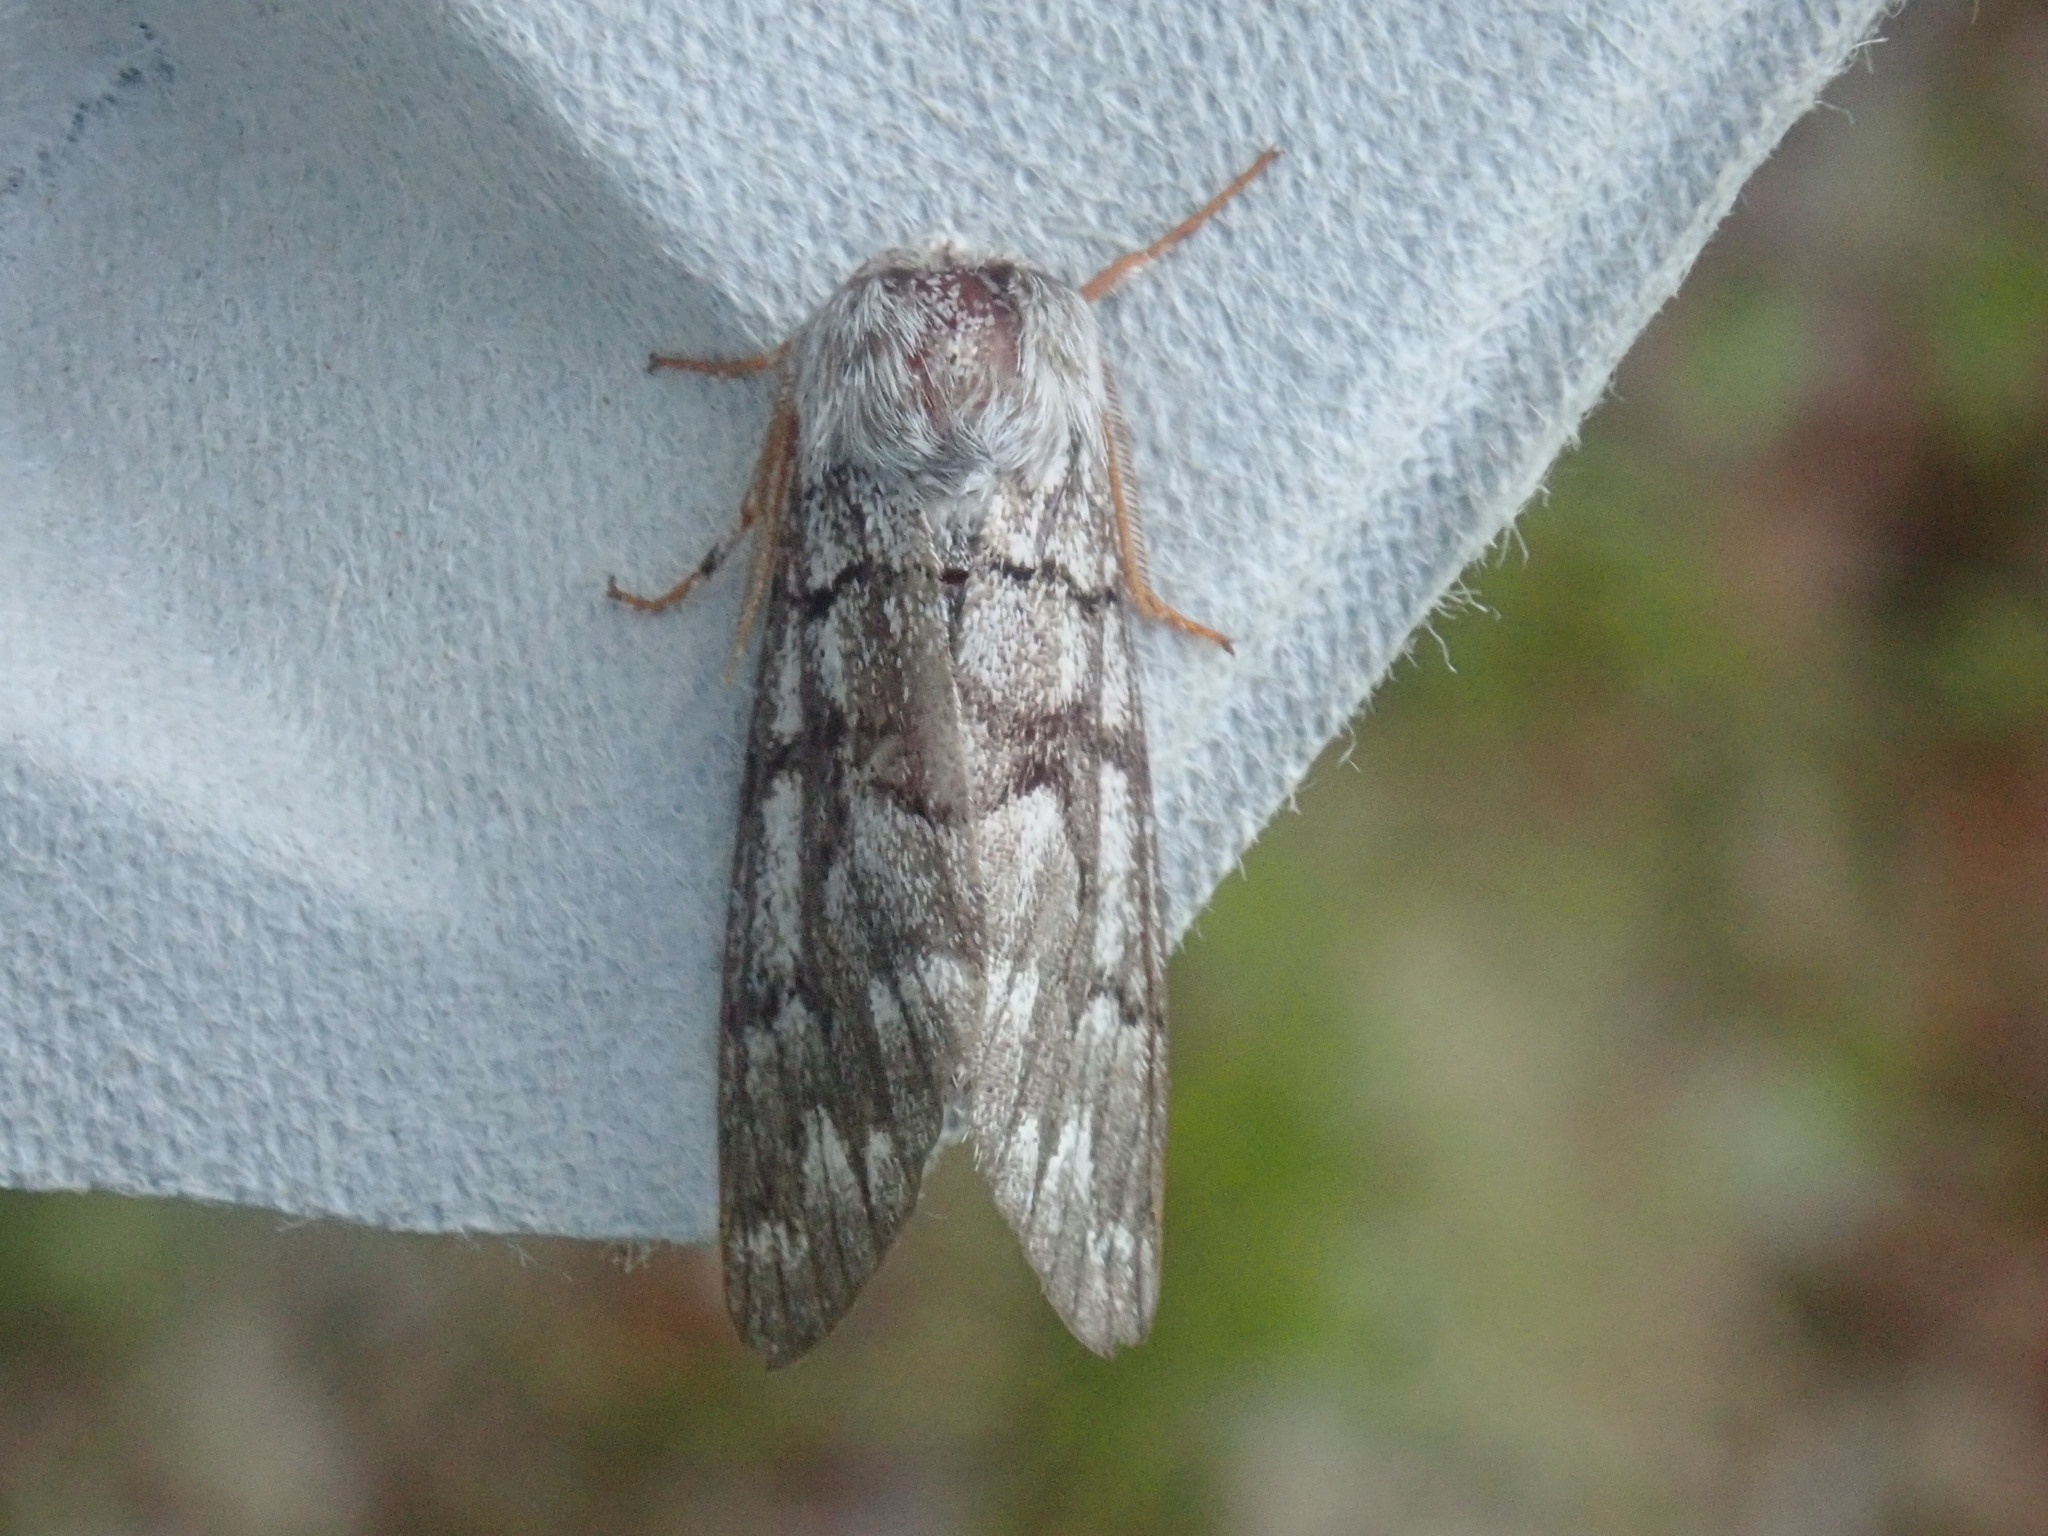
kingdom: Animalia
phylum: Arthropoda
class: Insecta
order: Lepidoptera
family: Noctuidae
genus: Panthea
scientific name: Panthea furcilla
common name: Eastern panthea moth
